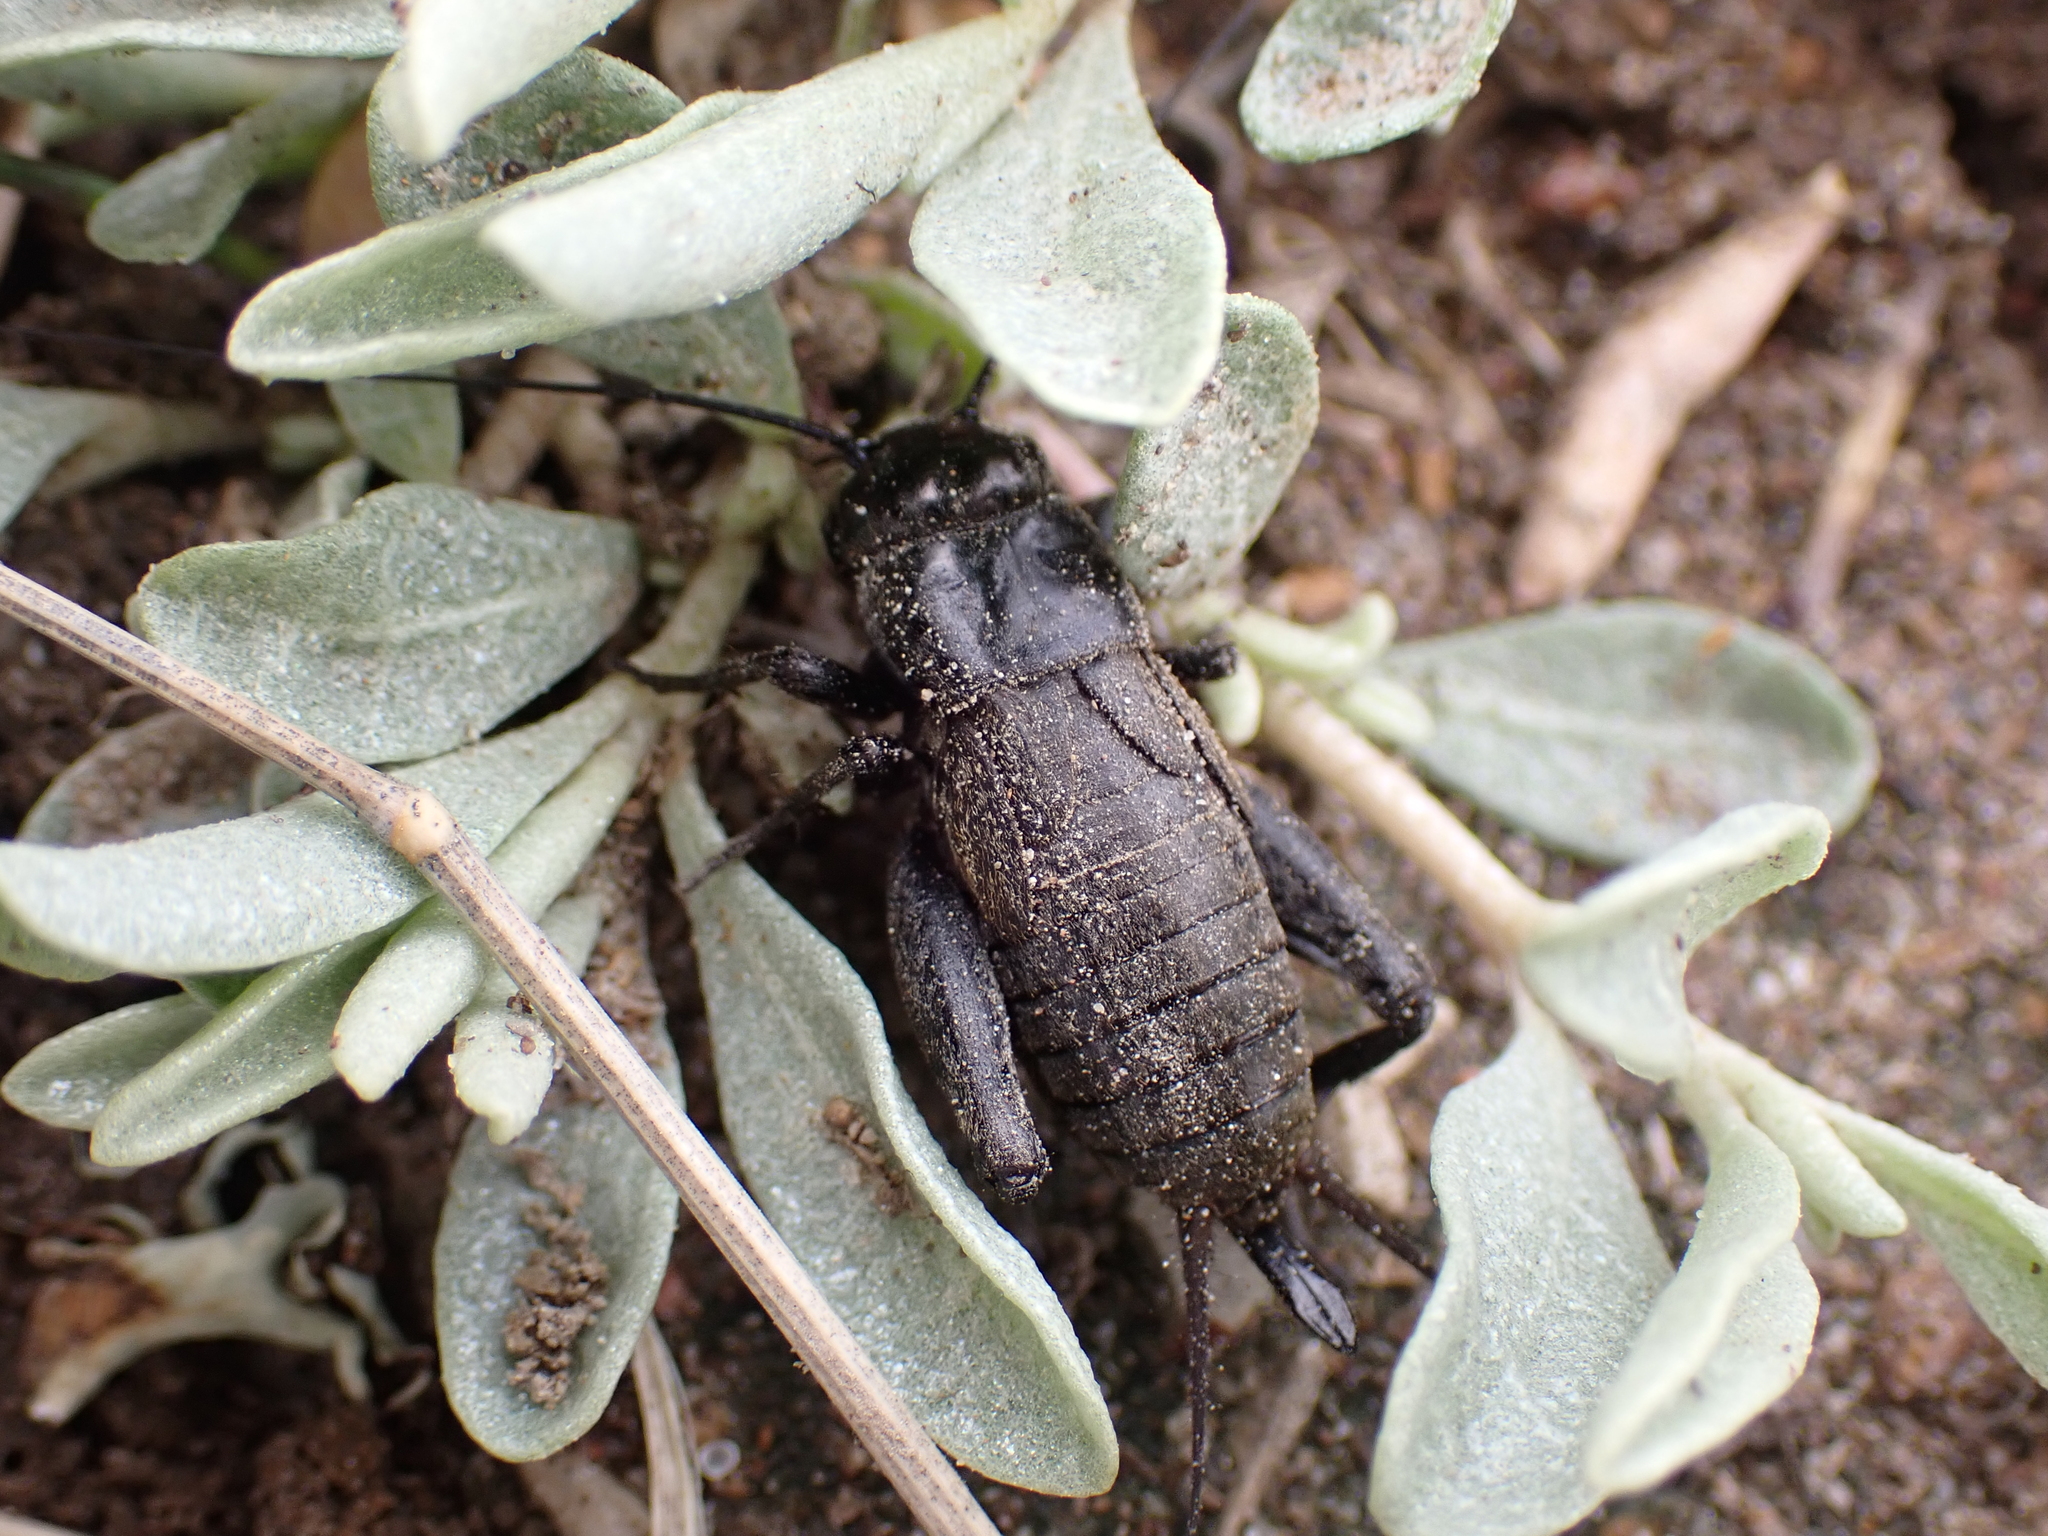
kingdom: Animalia
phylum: Arthropoda
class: Insecta
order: Orthoptera
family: Gryllidae
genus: Gryllus
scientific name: Gryllus veletis
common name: Spring field cricket
